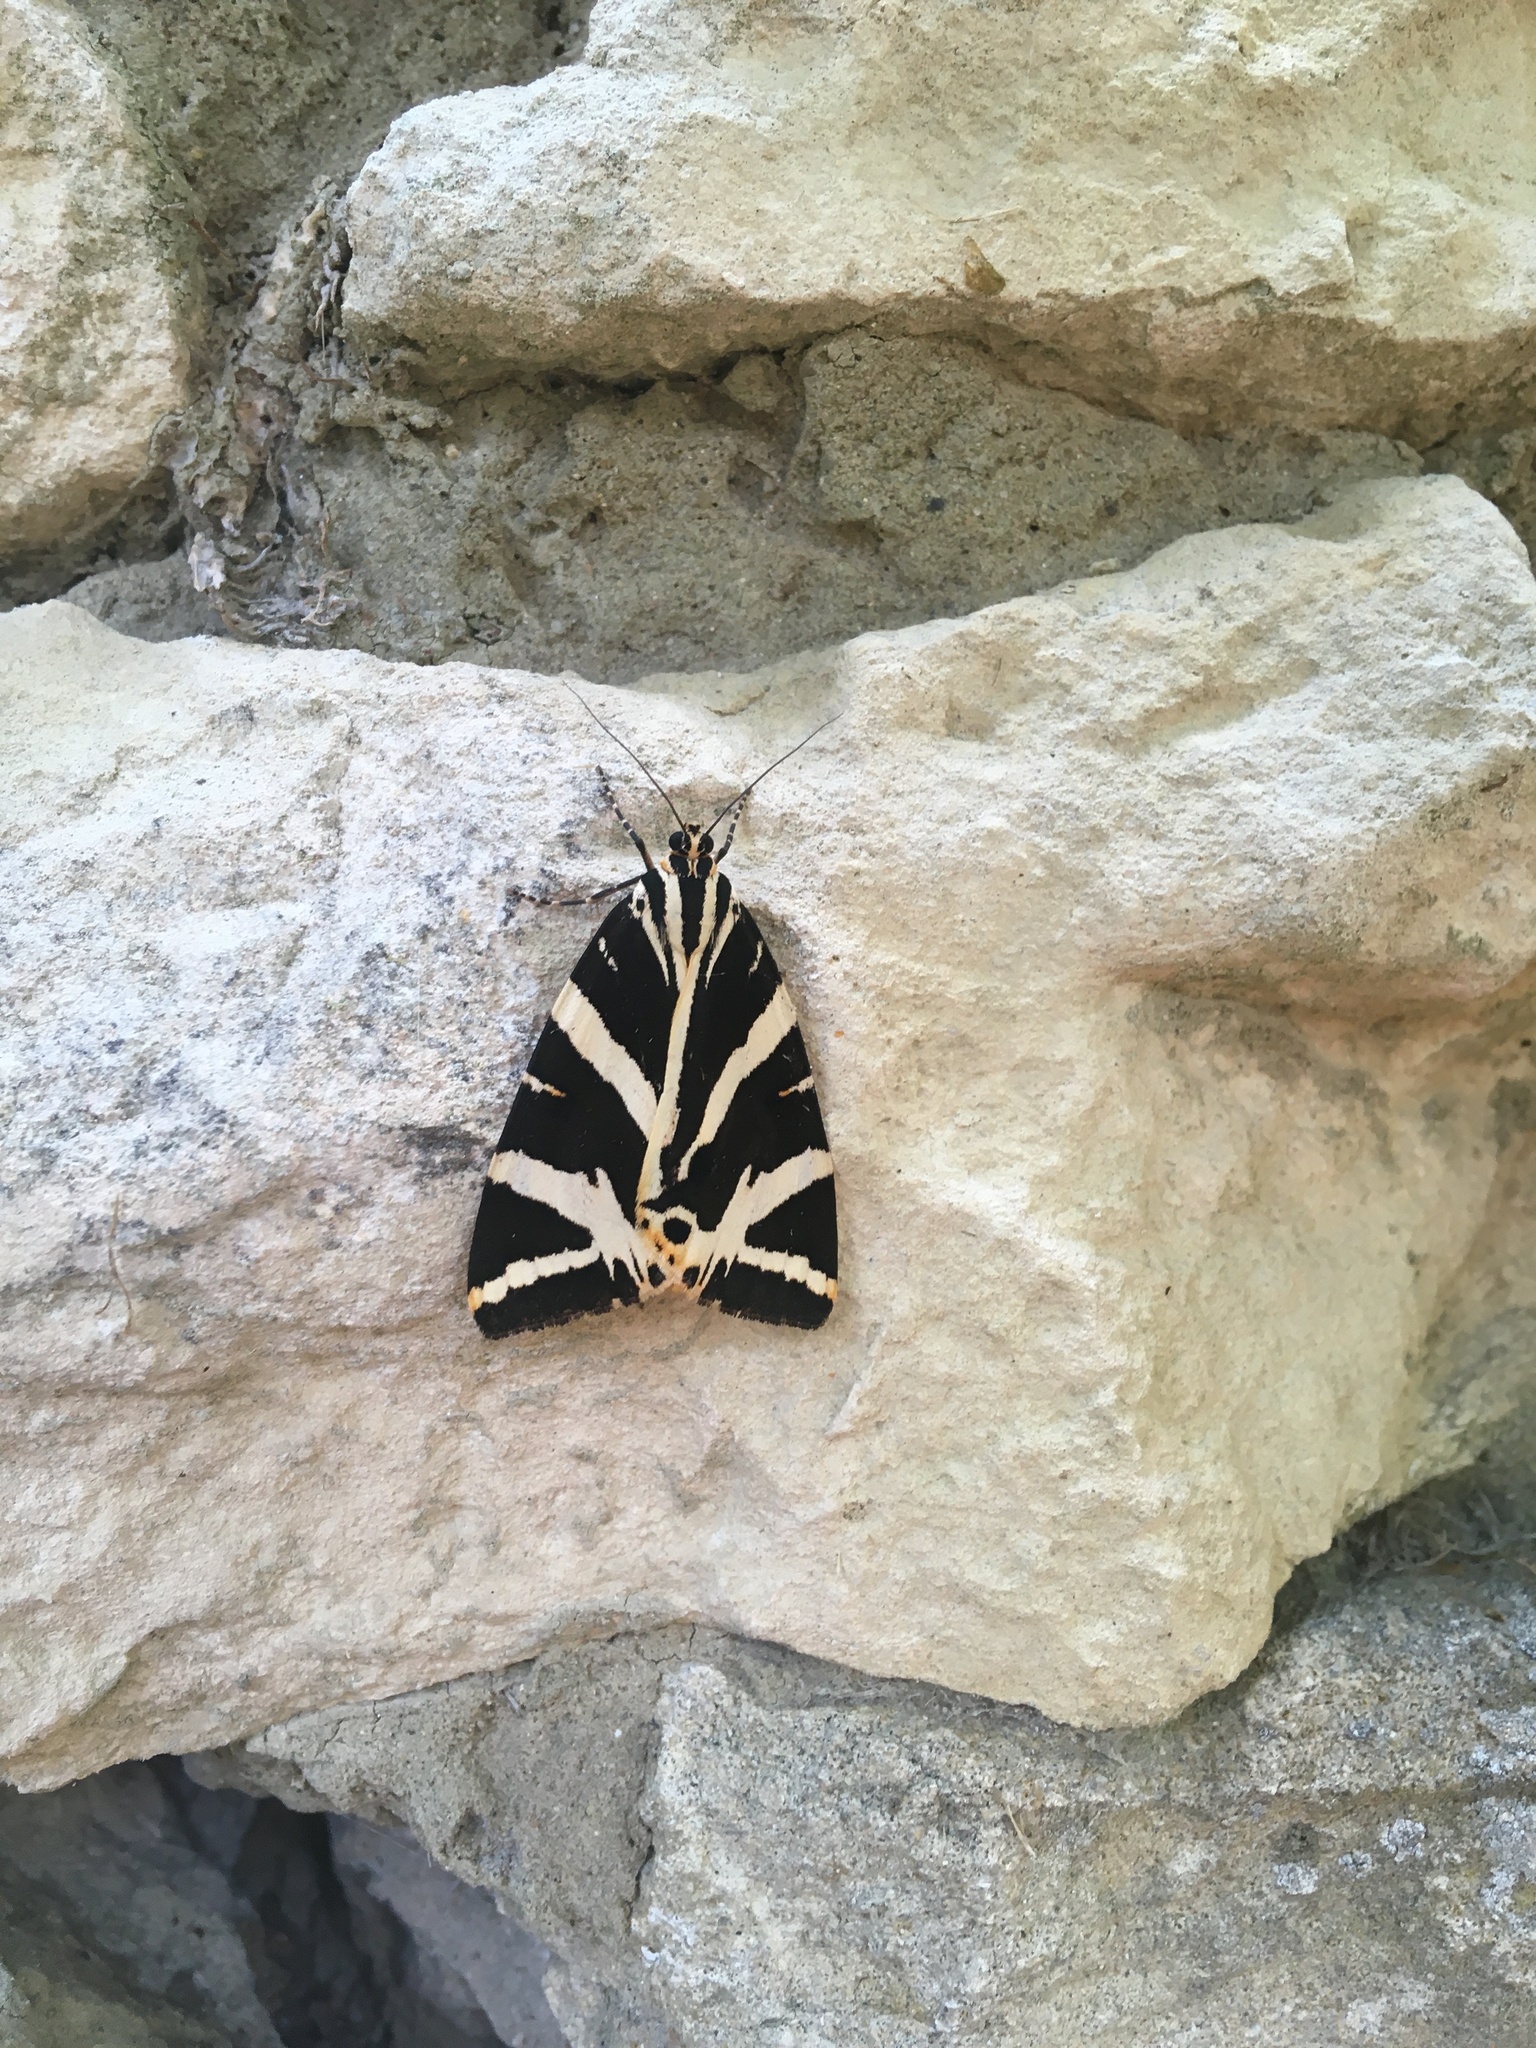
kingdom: Animalia
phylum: Arthropoda
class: Insecta
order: Lepidoptera
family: Erebidae
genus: Euplagia
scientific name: Euplagia quadripunctaria
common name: Jersey tiger
